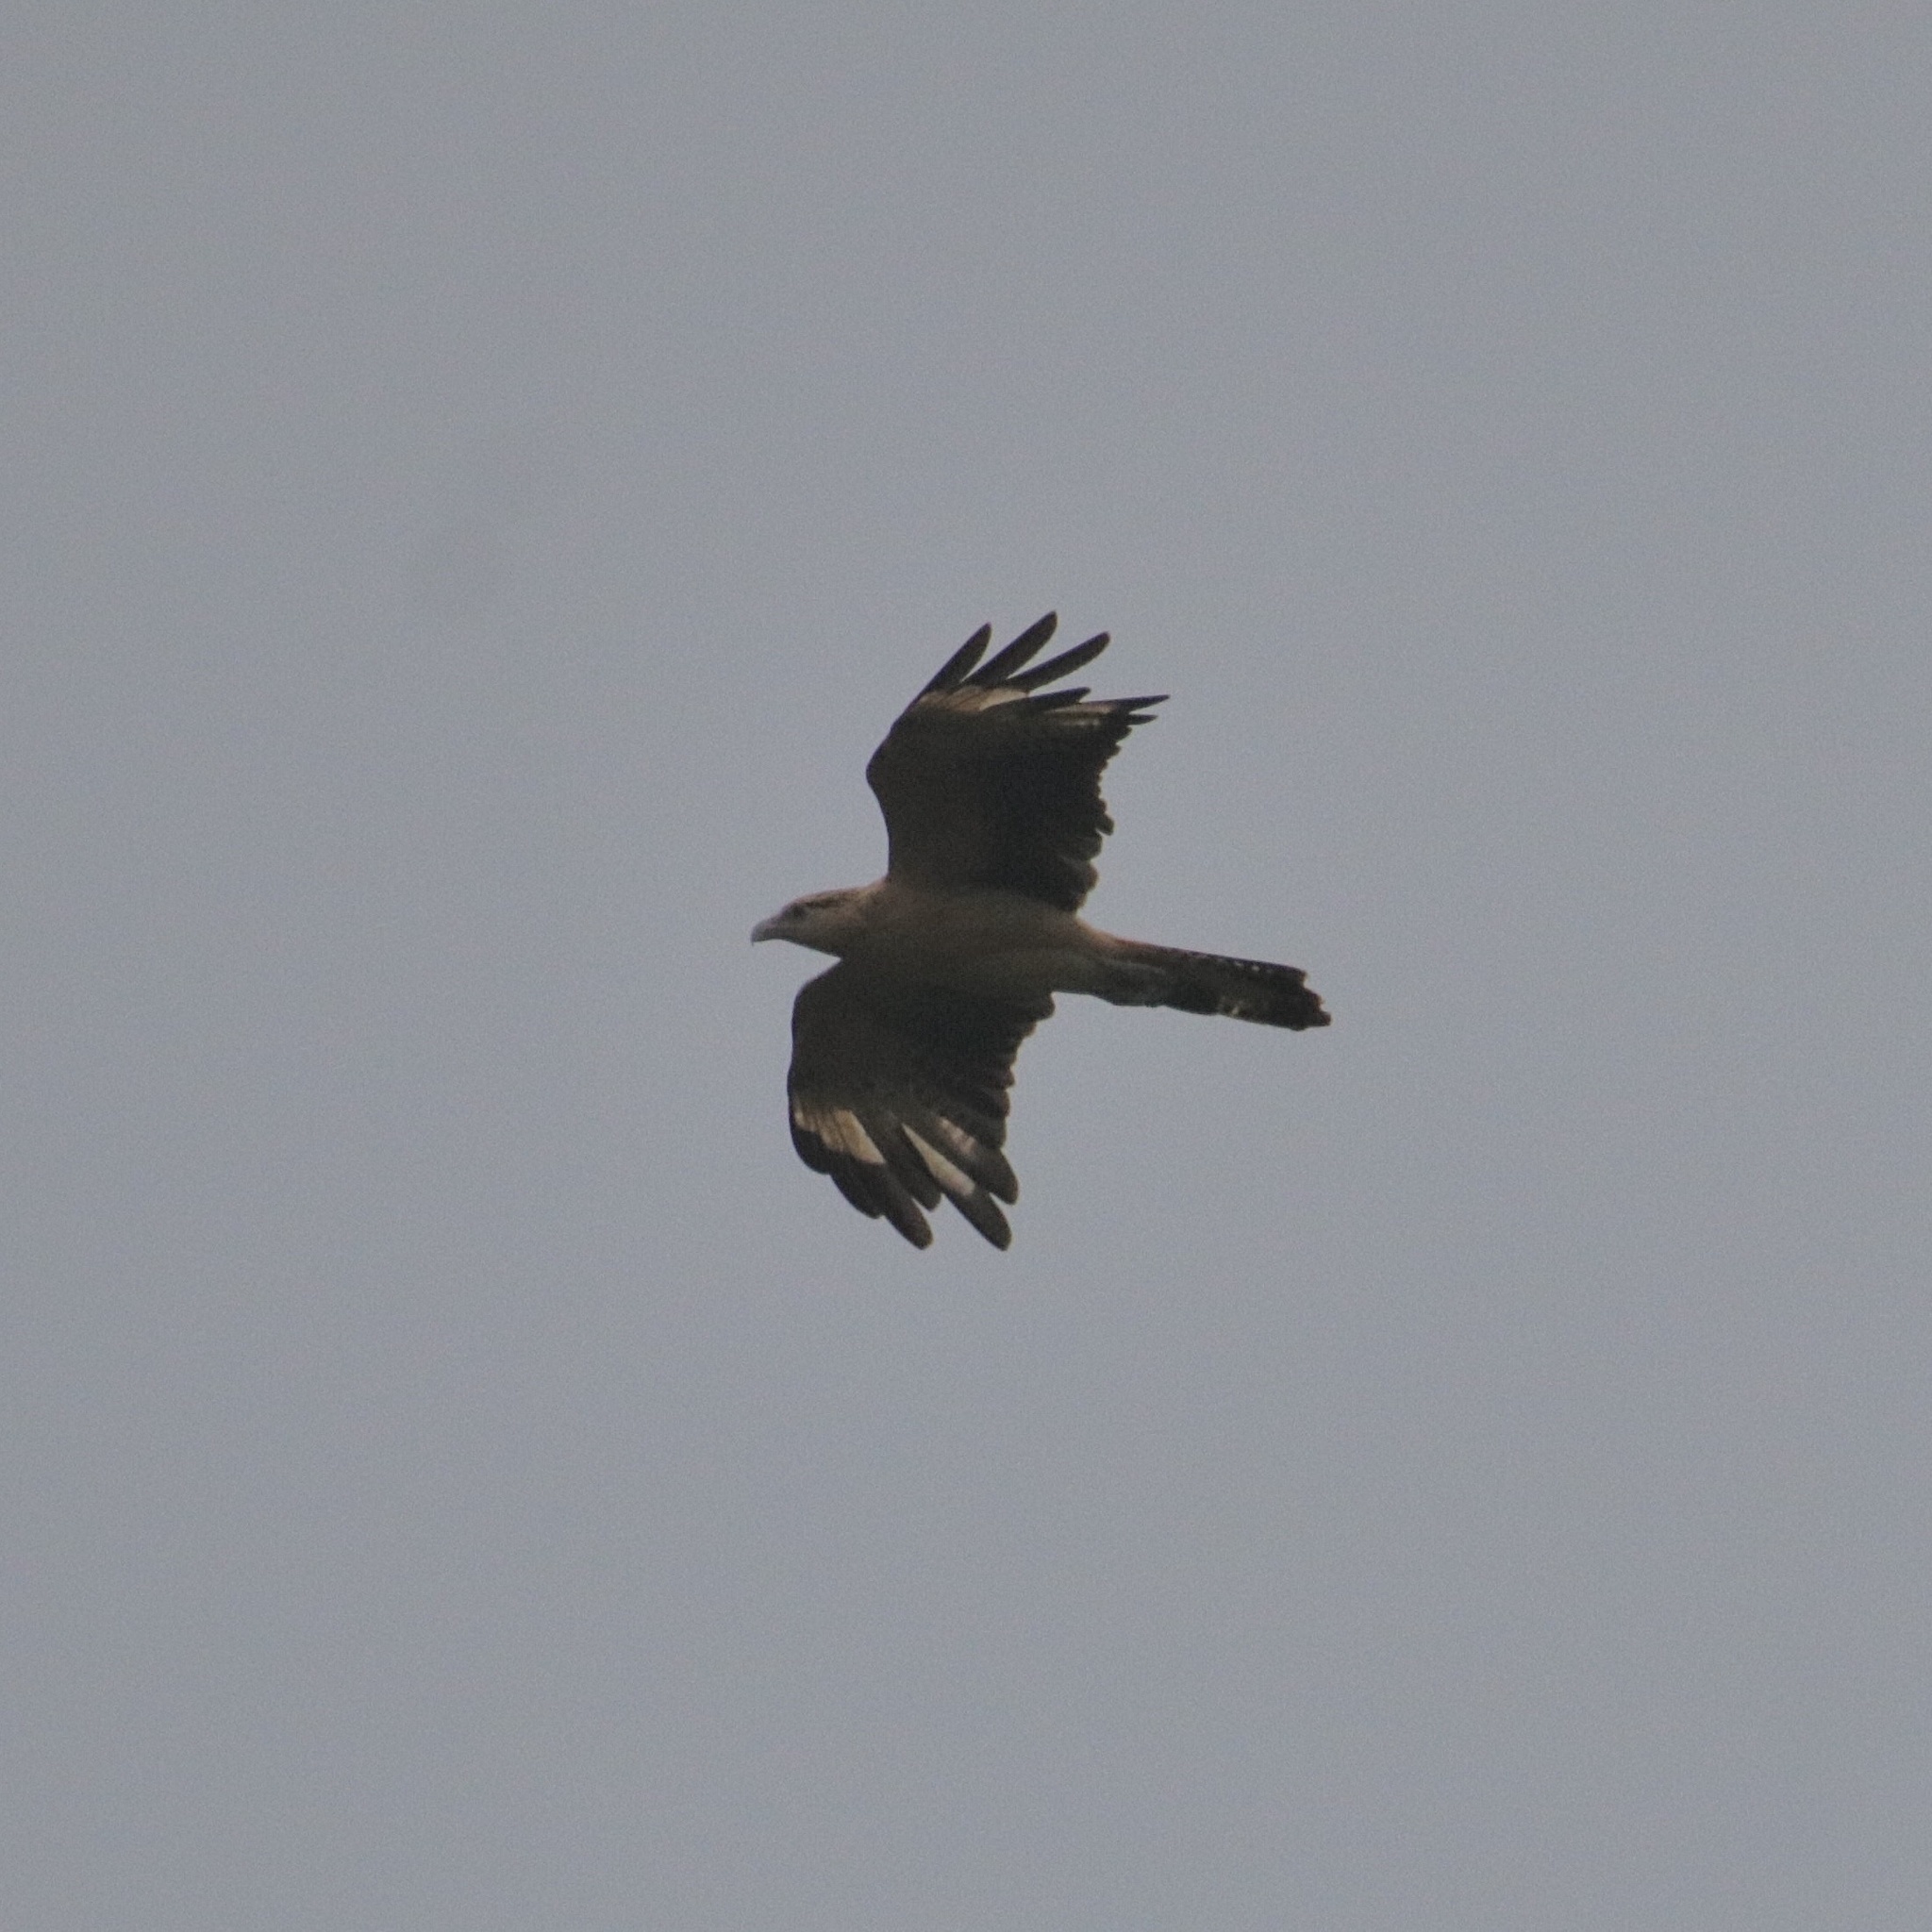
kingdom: Animalia
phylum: Chordata
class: Aves
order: Falconiformes
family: Falconidae
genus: Daptrius
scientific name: Daptrius
